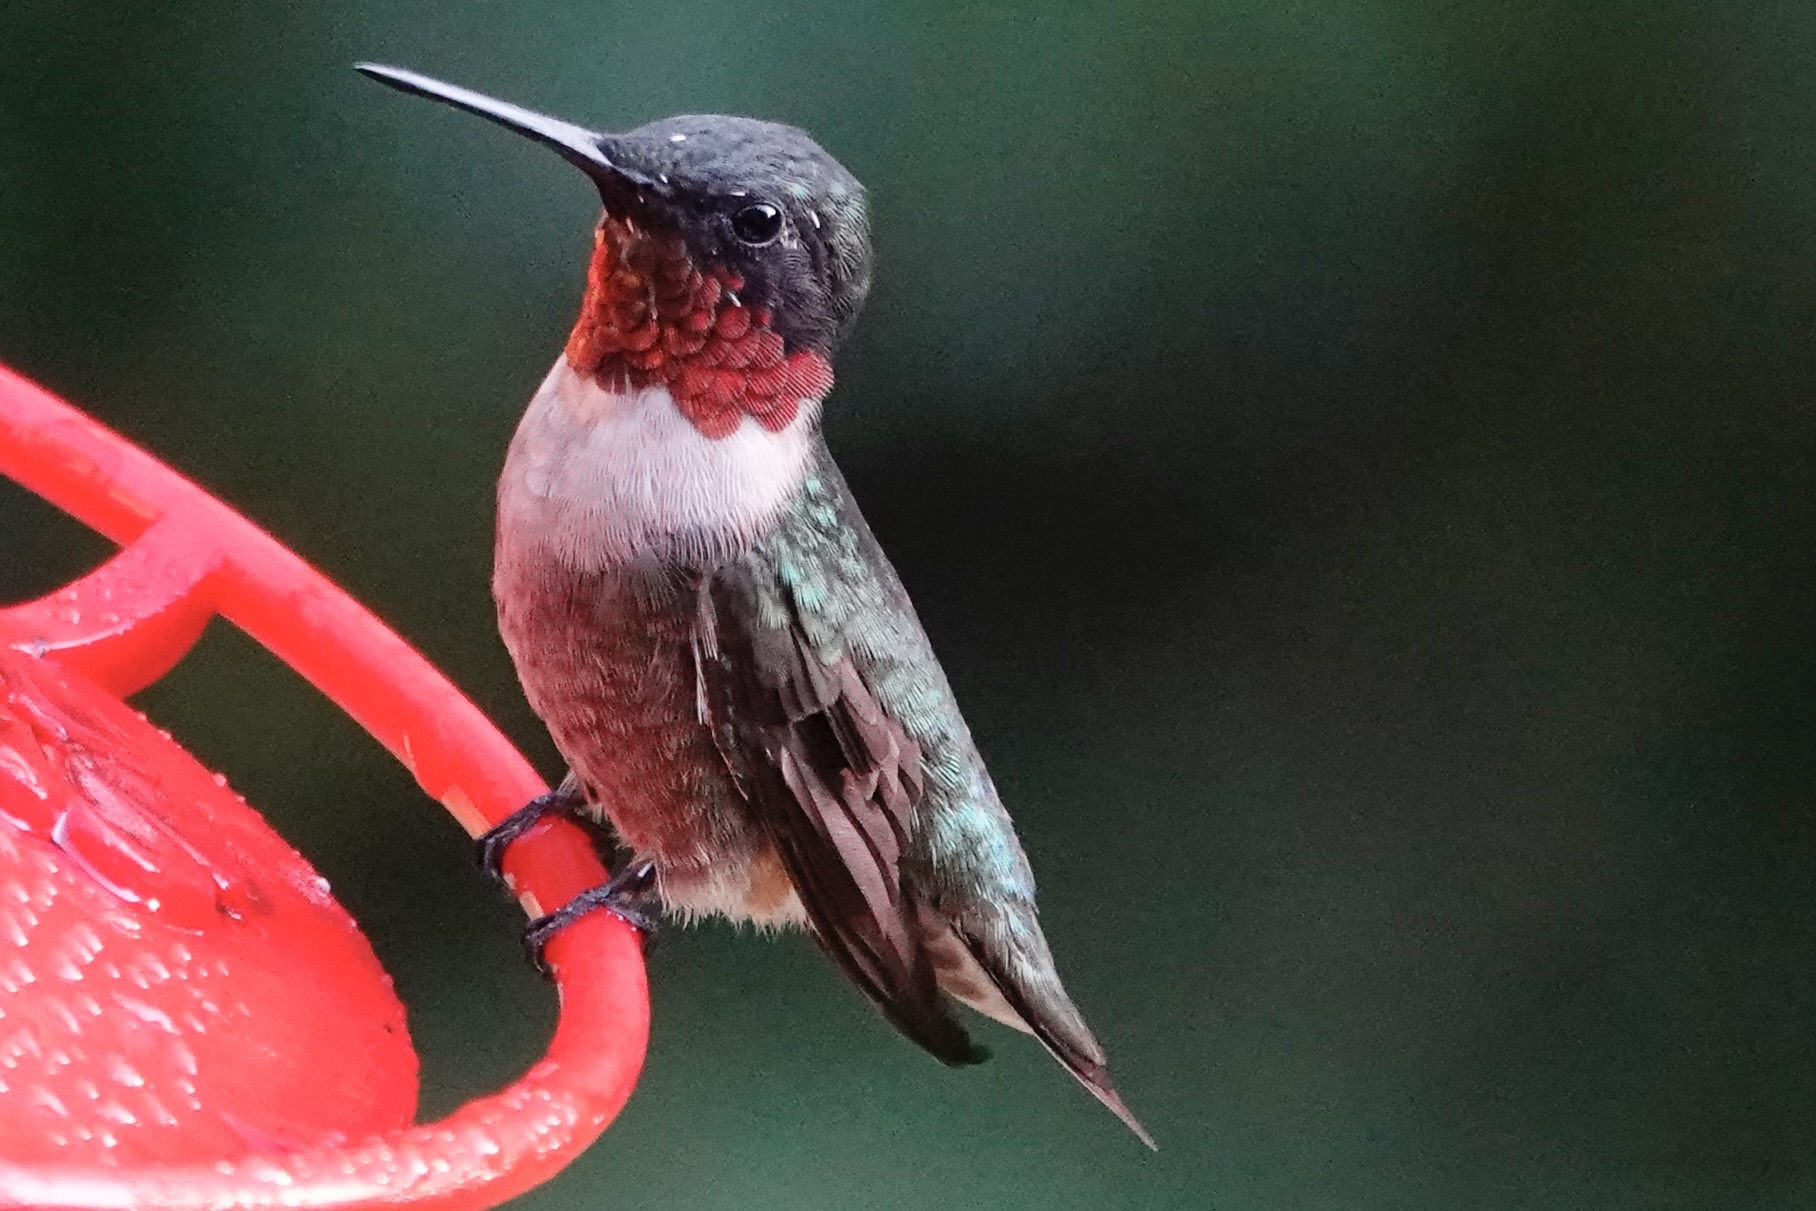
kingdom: Animalia
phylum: Chordata
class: Aves
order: Apodiformes
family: Trochilidae
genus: Archilochus
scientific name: Archilochus colubris
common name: Ruby-throated hummingbird
